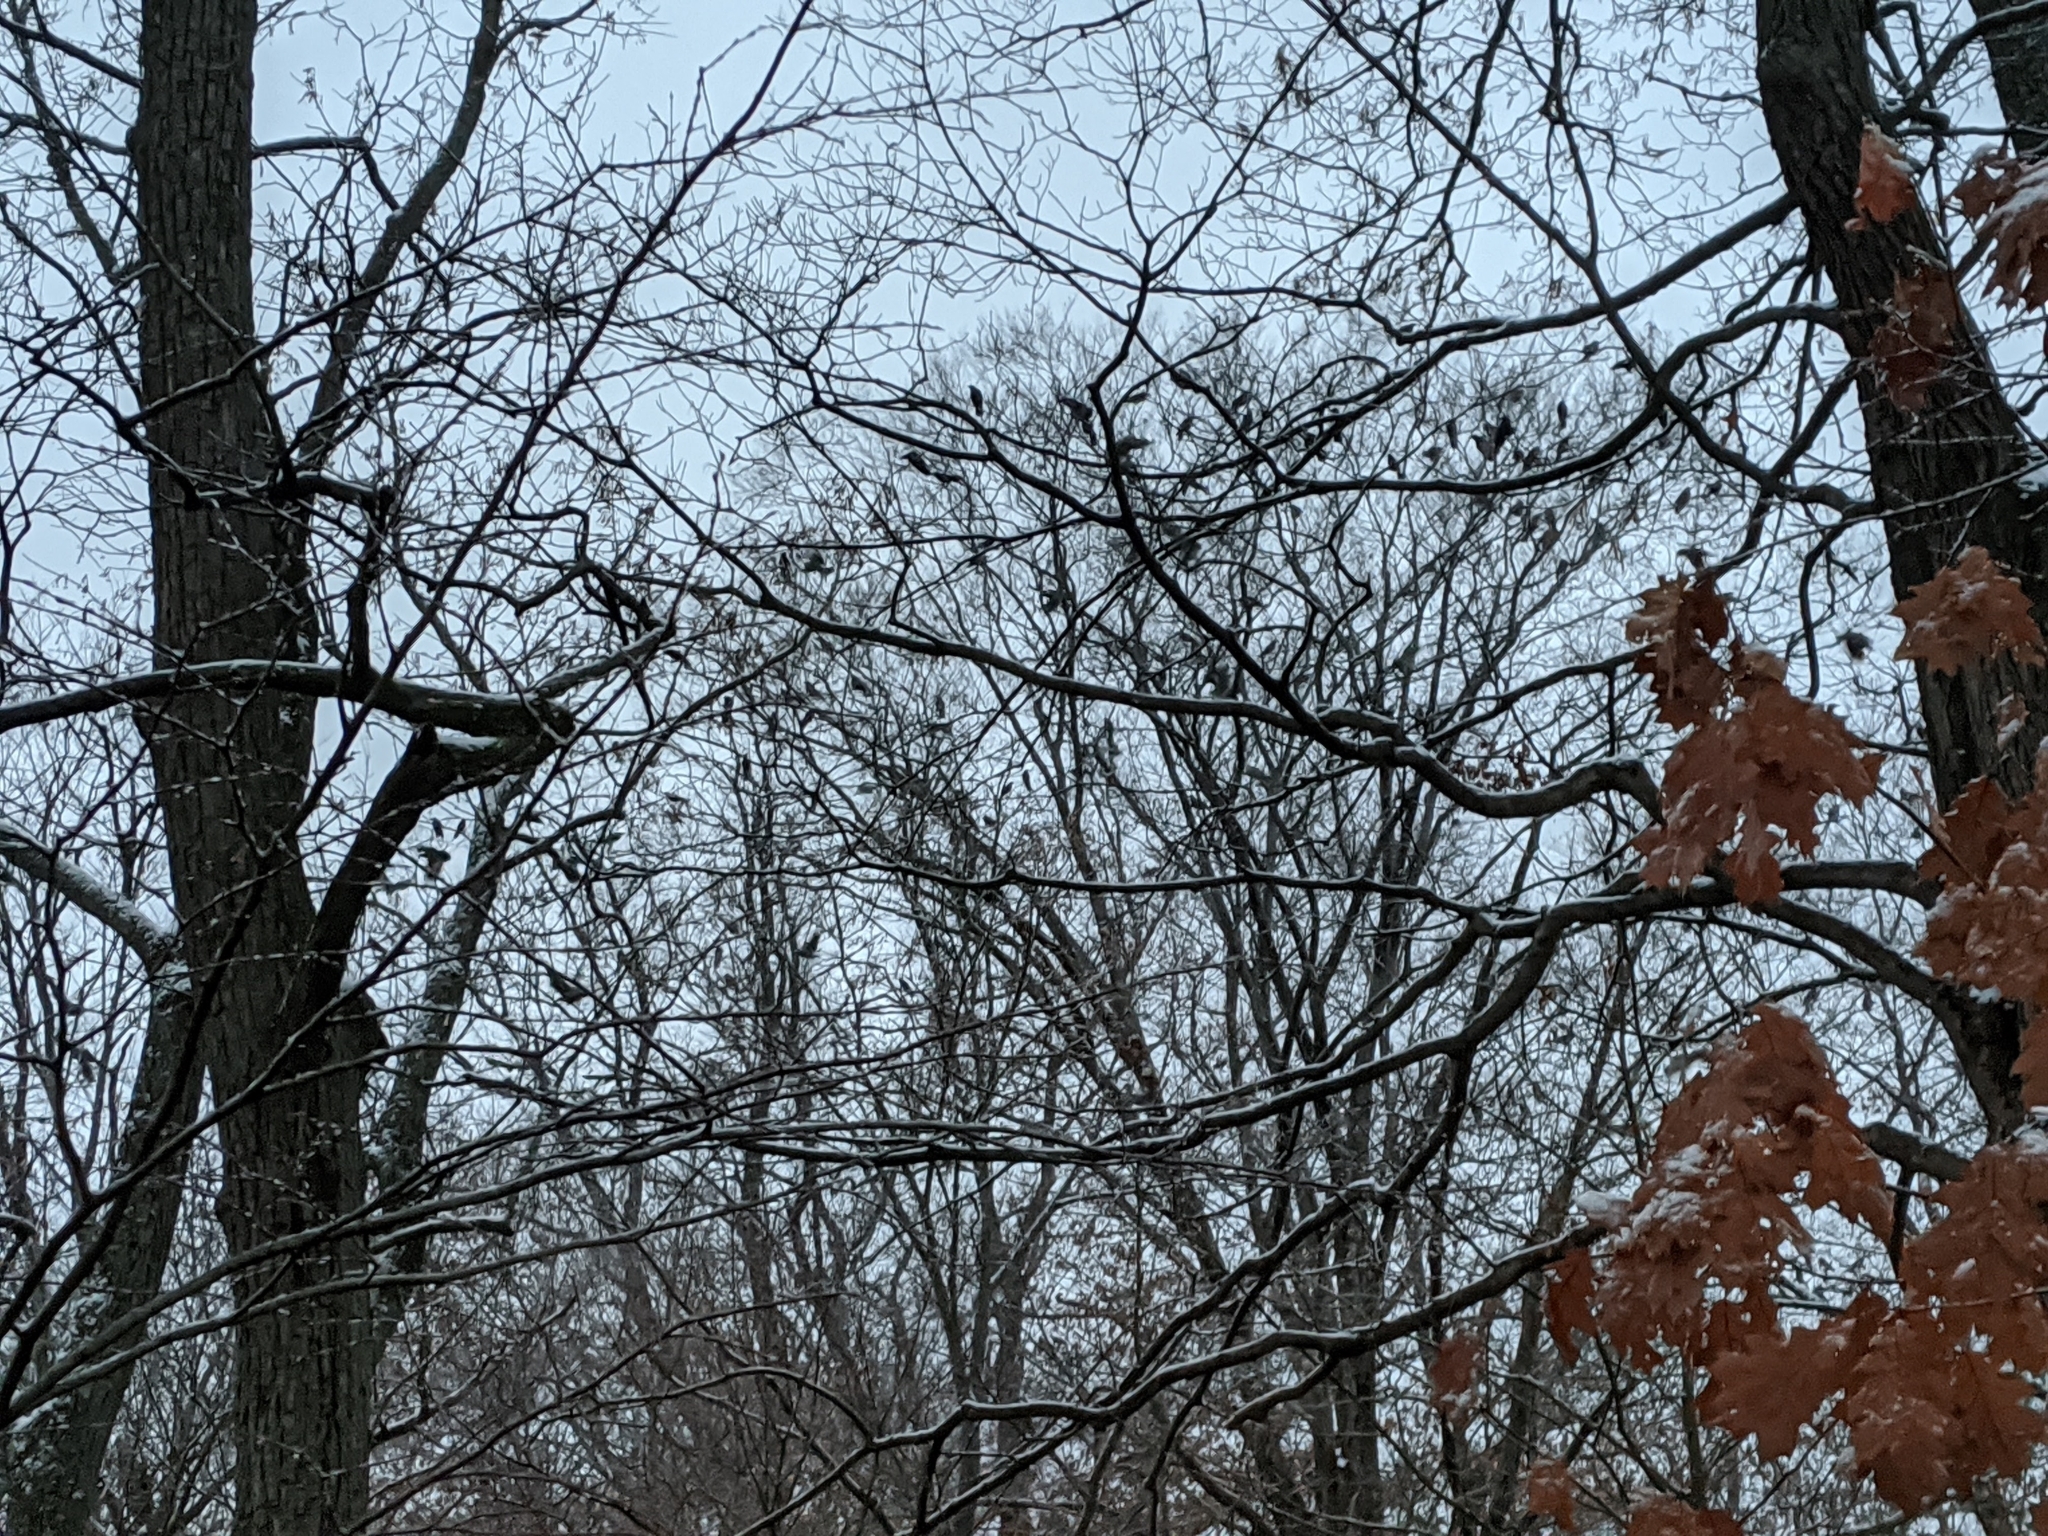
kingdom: Animalia
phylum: Chordata
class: Aves
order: Passeriformes
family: Corvidae
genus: Corvus
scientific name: Corvus brachyrhynchos
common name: American crow
